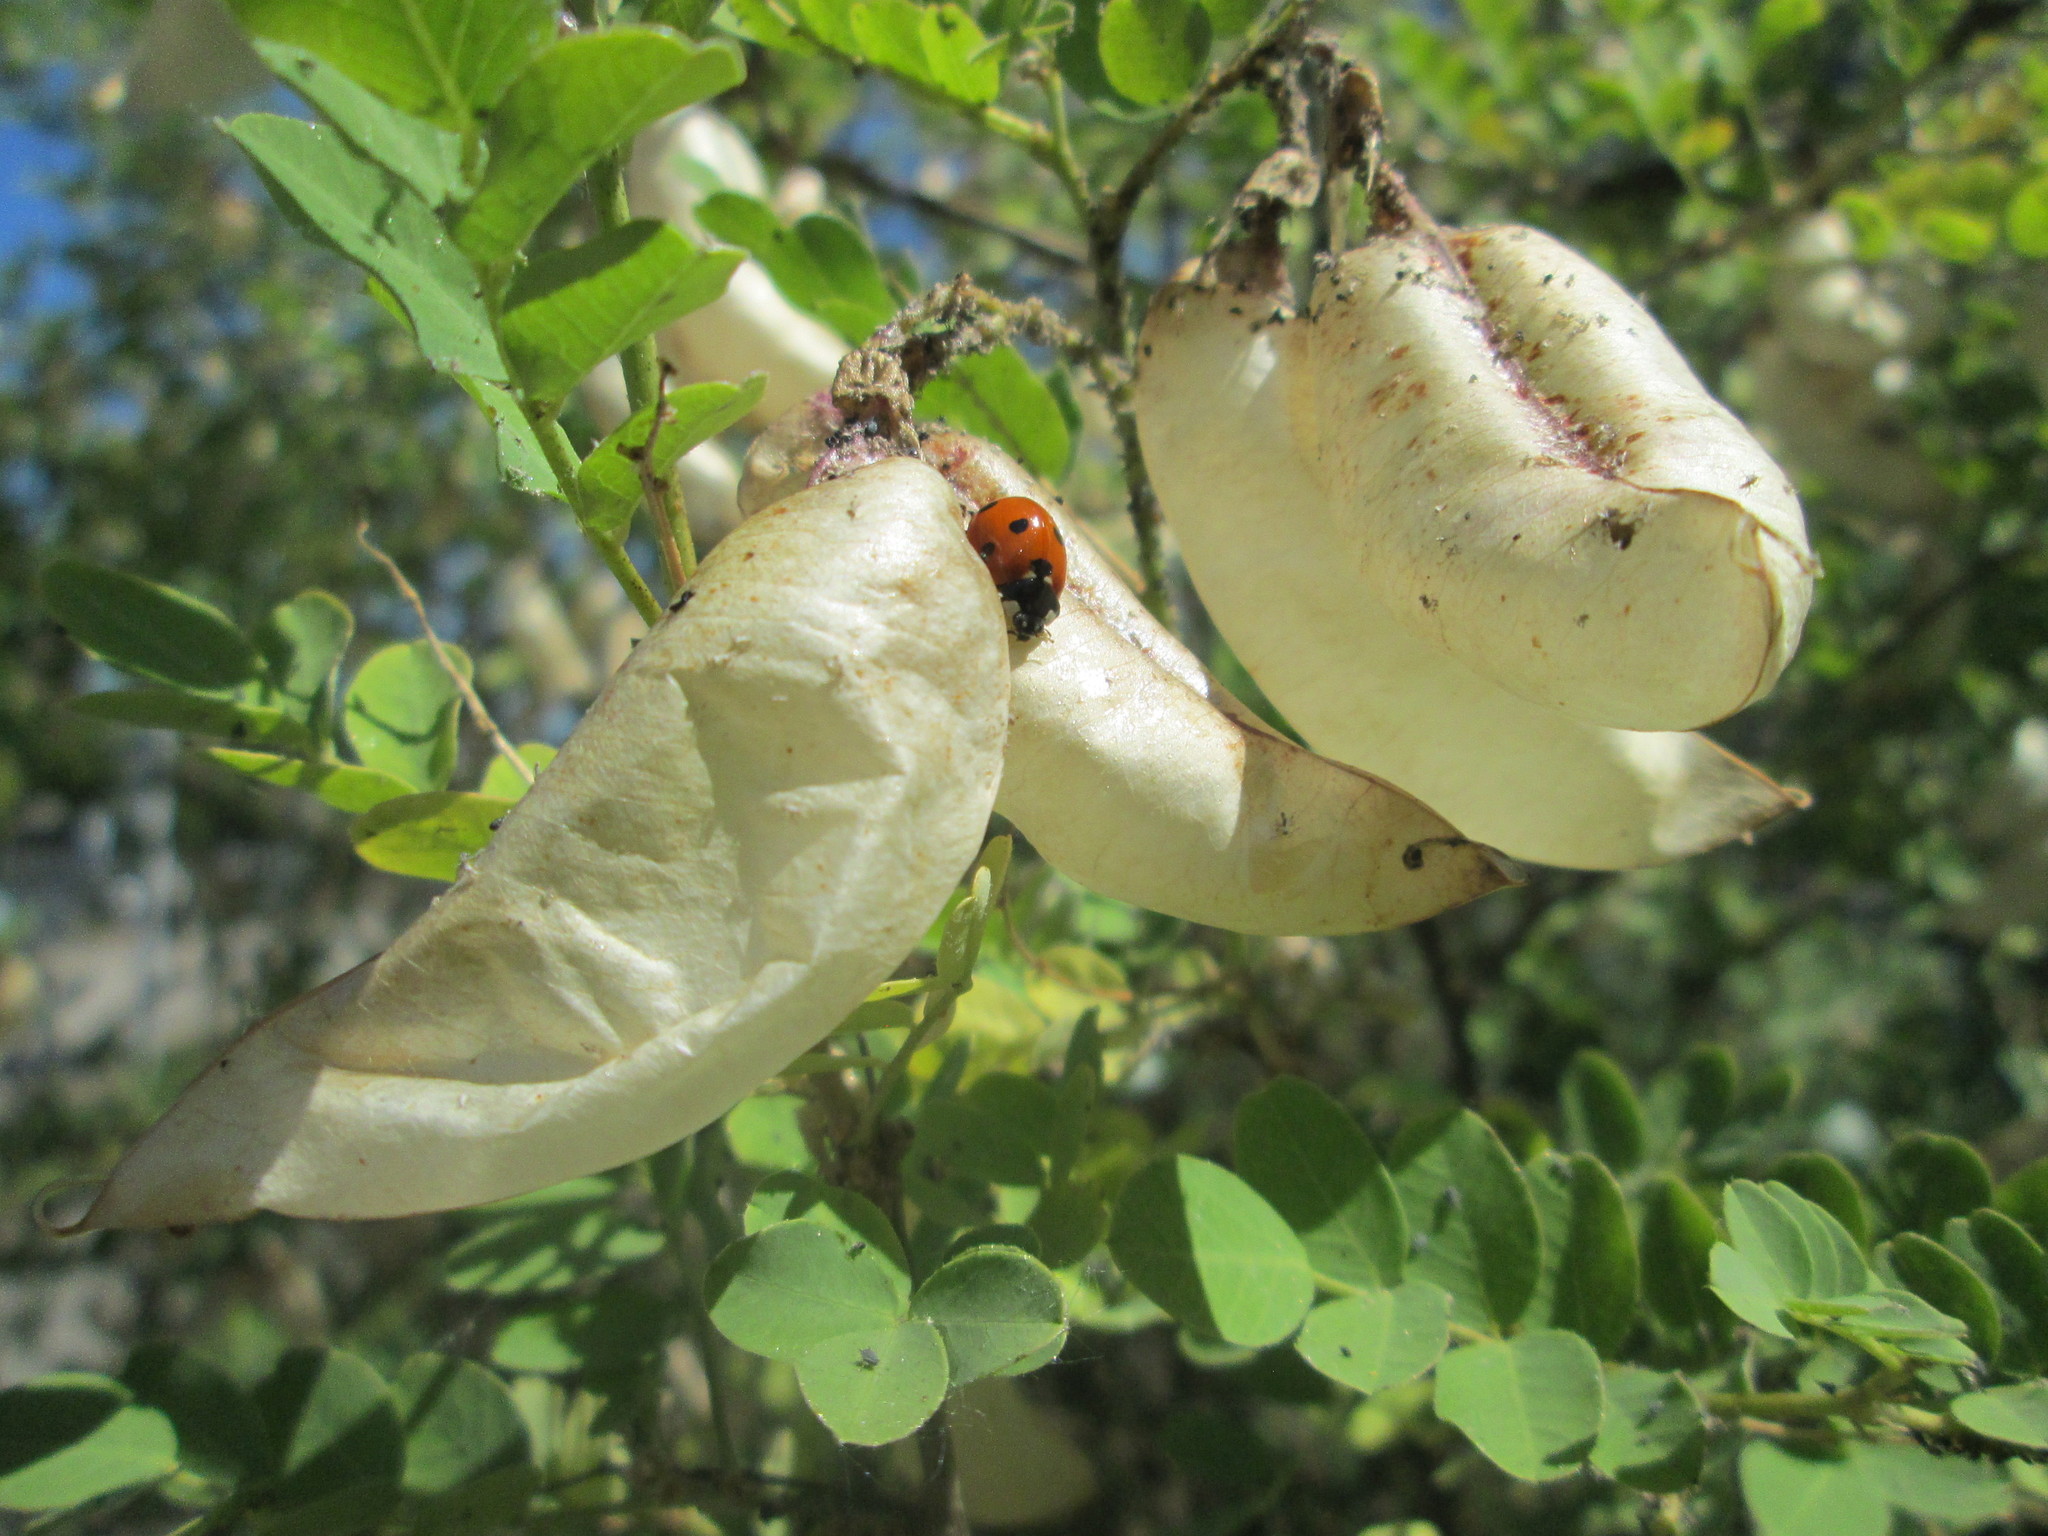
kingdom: Plantae
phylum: Tracheophyta
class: Magnoliopsida
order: Fabales
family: Fabaceae
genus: Colutea
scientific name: Colutea arborescens
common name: Bladder-senna
